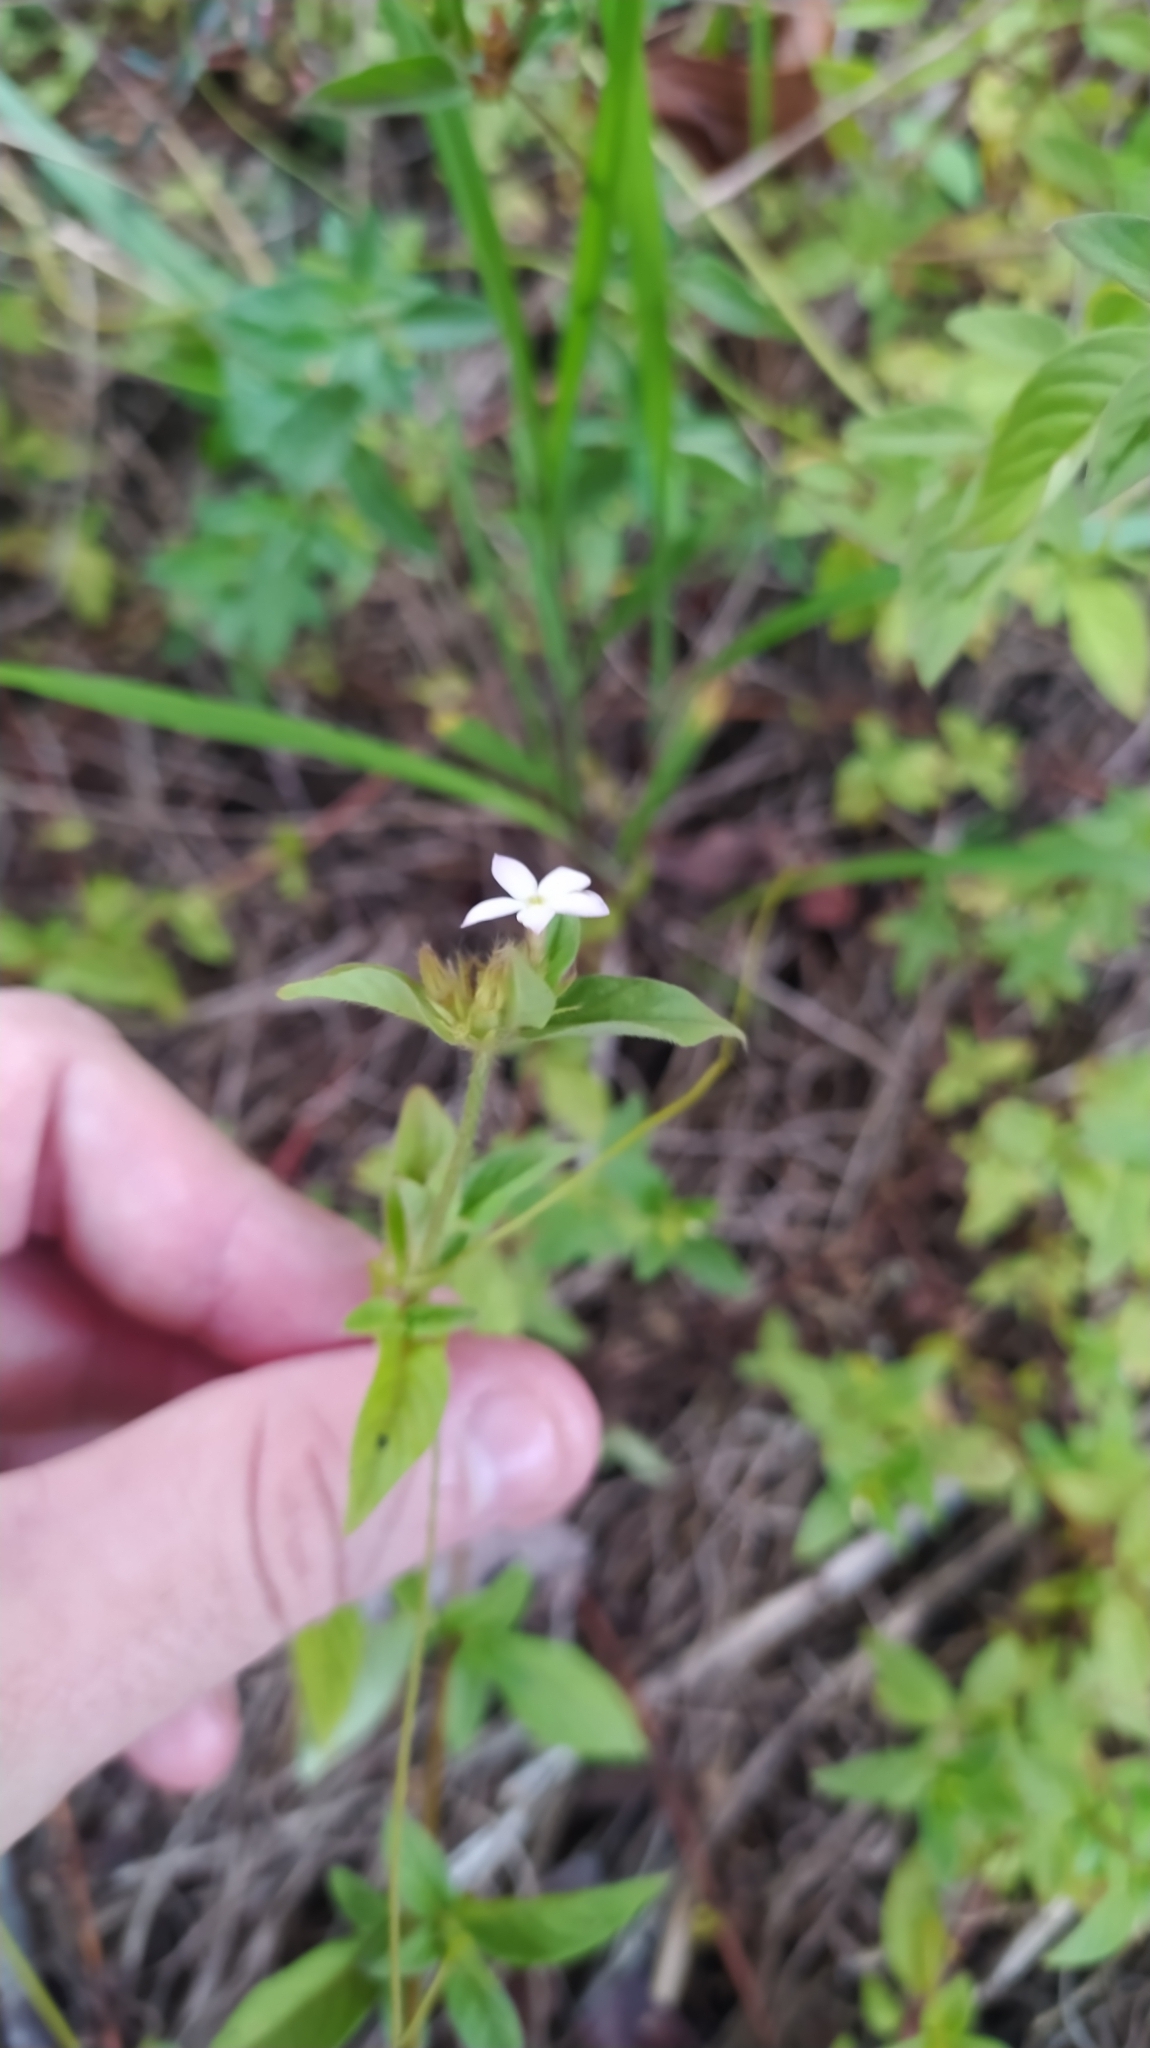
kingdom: Plantae
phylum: Tracheophyta
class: Magnoliopsida
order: Gentianales
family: Rubiaceae
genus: Sipanea
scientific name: Sipanea pratensis
